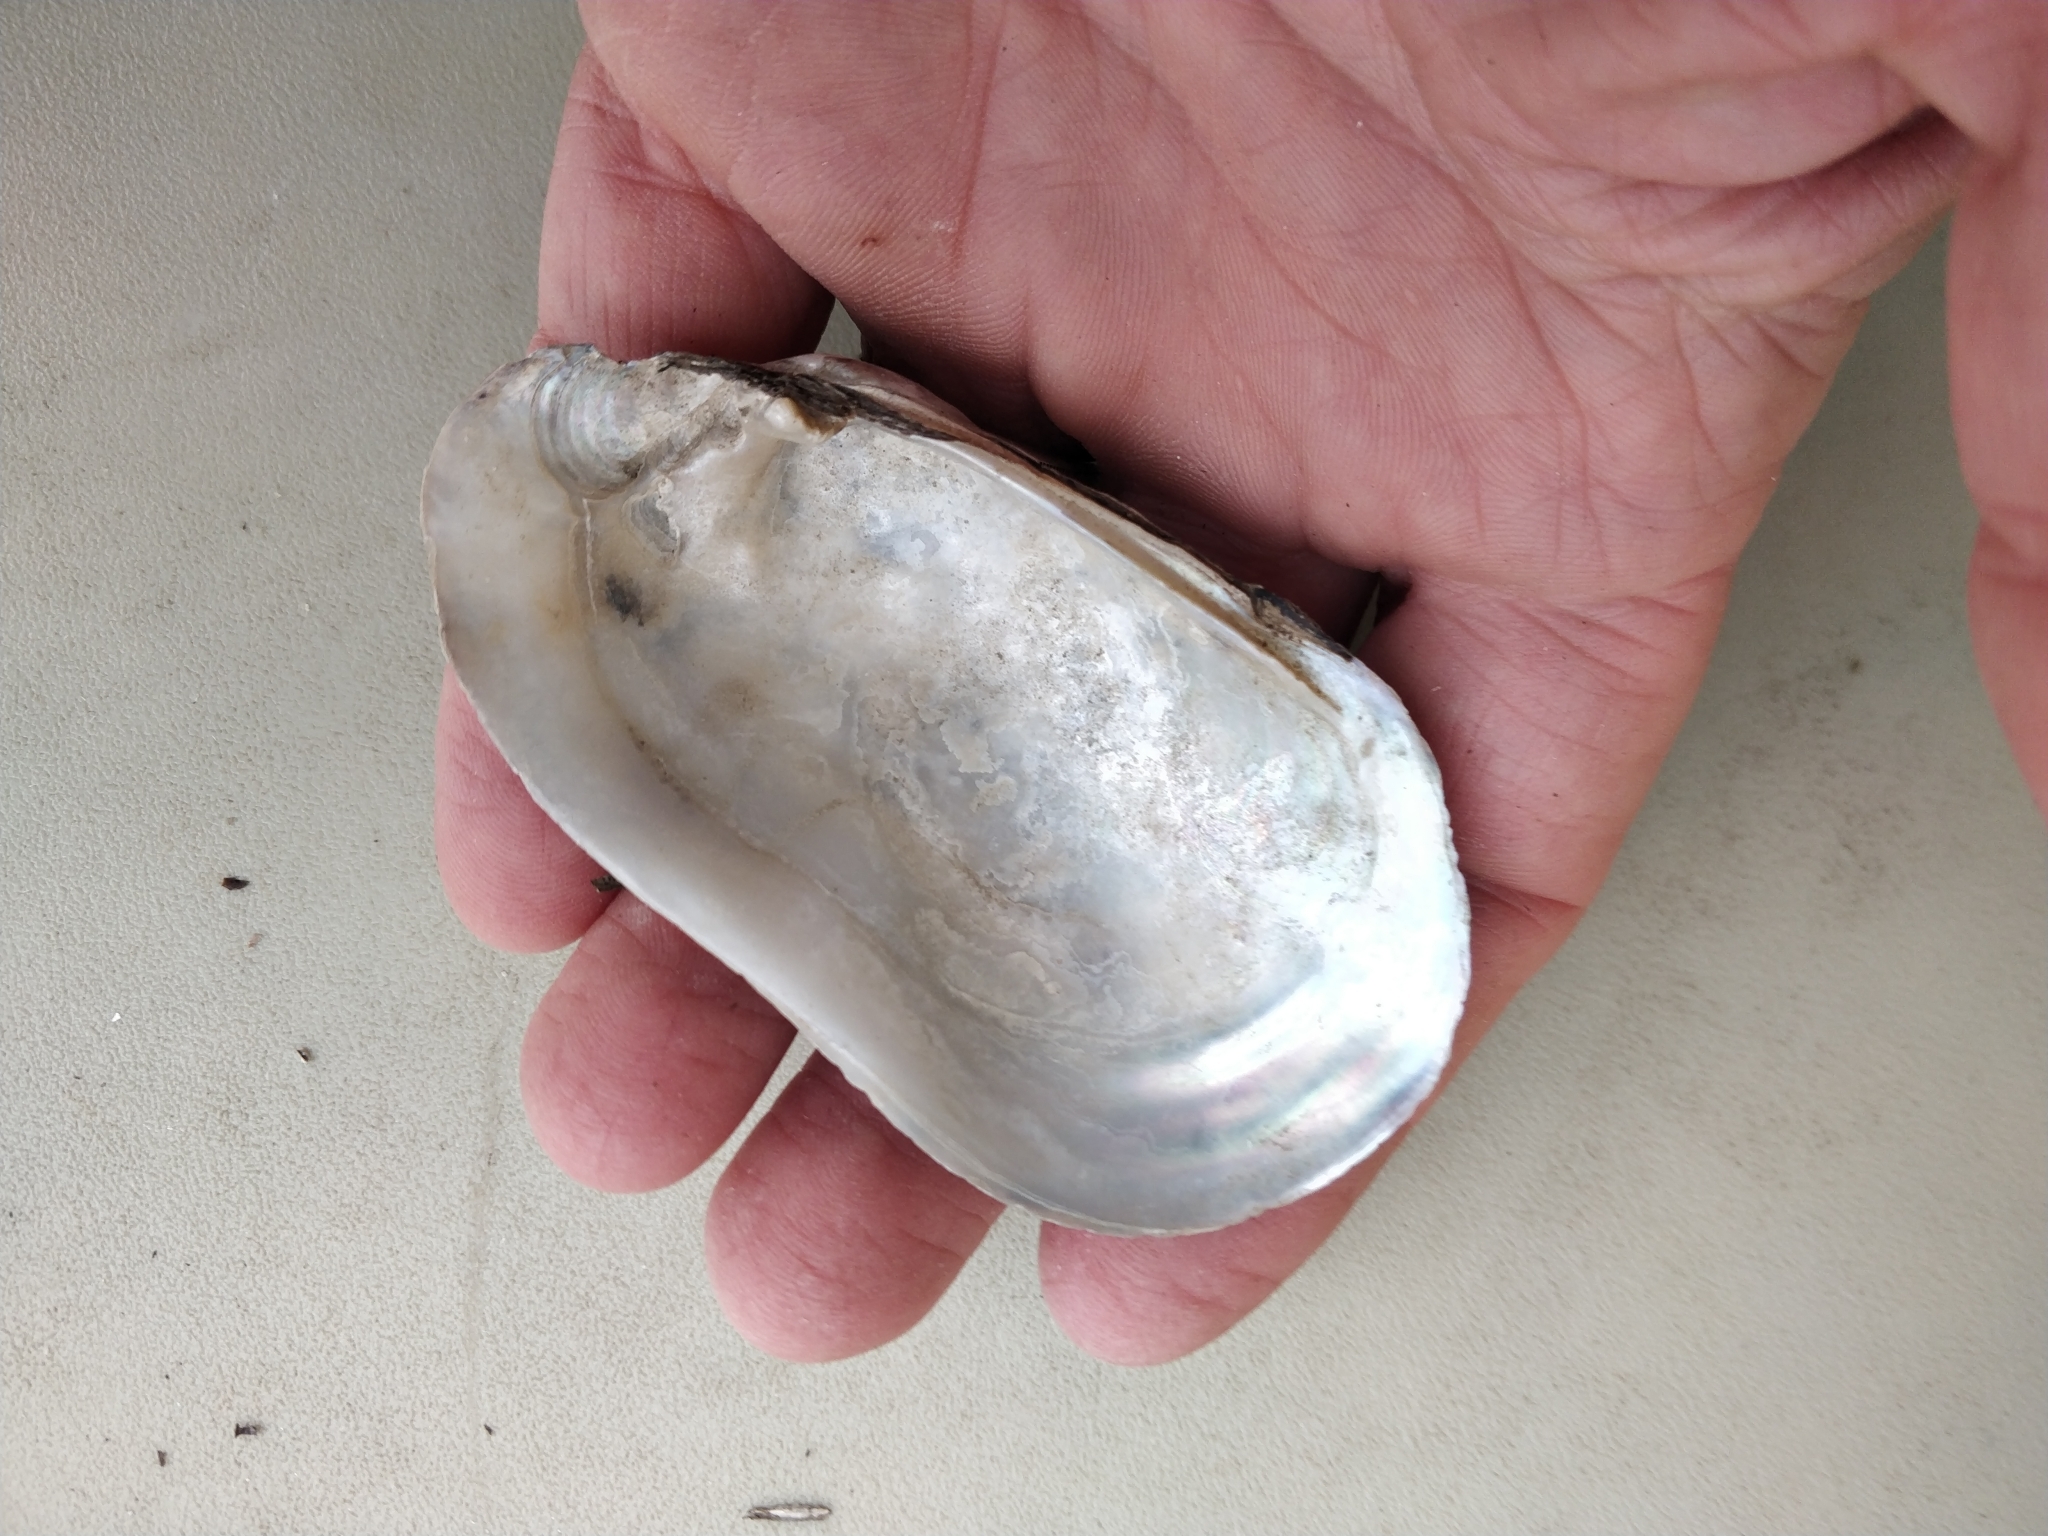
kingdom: Animalia
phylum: Mollusca
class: Bivalvia
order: Unionida
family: Unionidae
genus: Lampsilis
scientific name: Lampsilis siliquoidea
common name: Fatmucket
